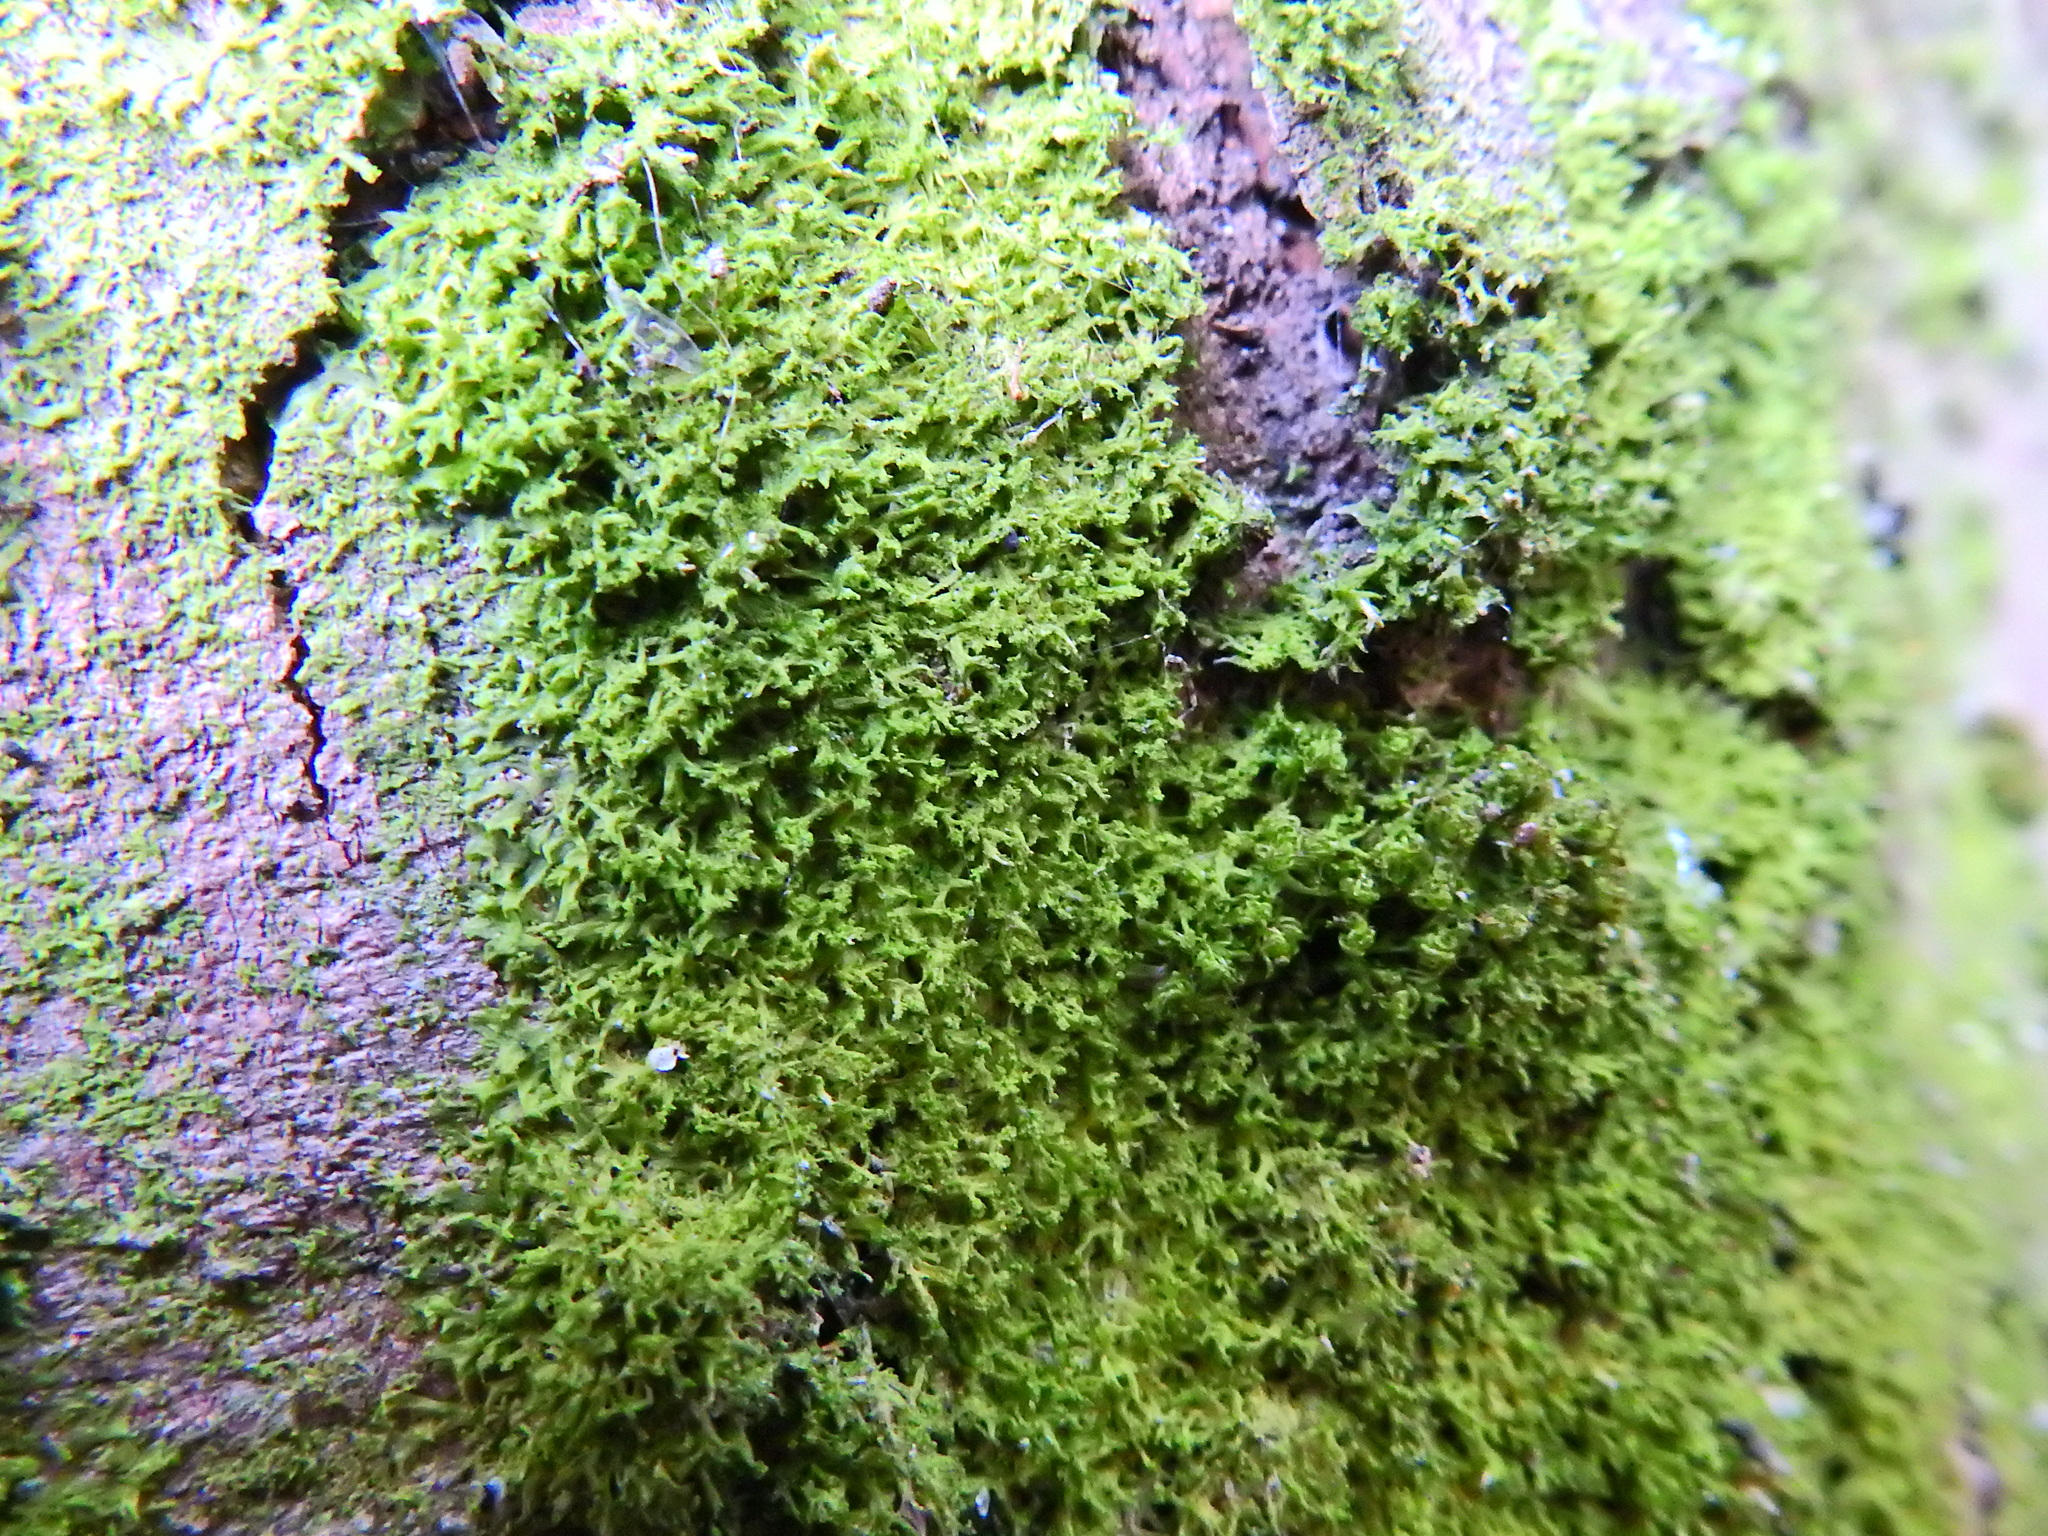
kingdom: Plantae
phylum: Marchantiophyta
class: Jungermanniopsida
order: Metzgeriales
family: Metzgeriaceae
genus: Metzgeria
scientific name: Metzgeria violacea
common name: Blueish veilwort
